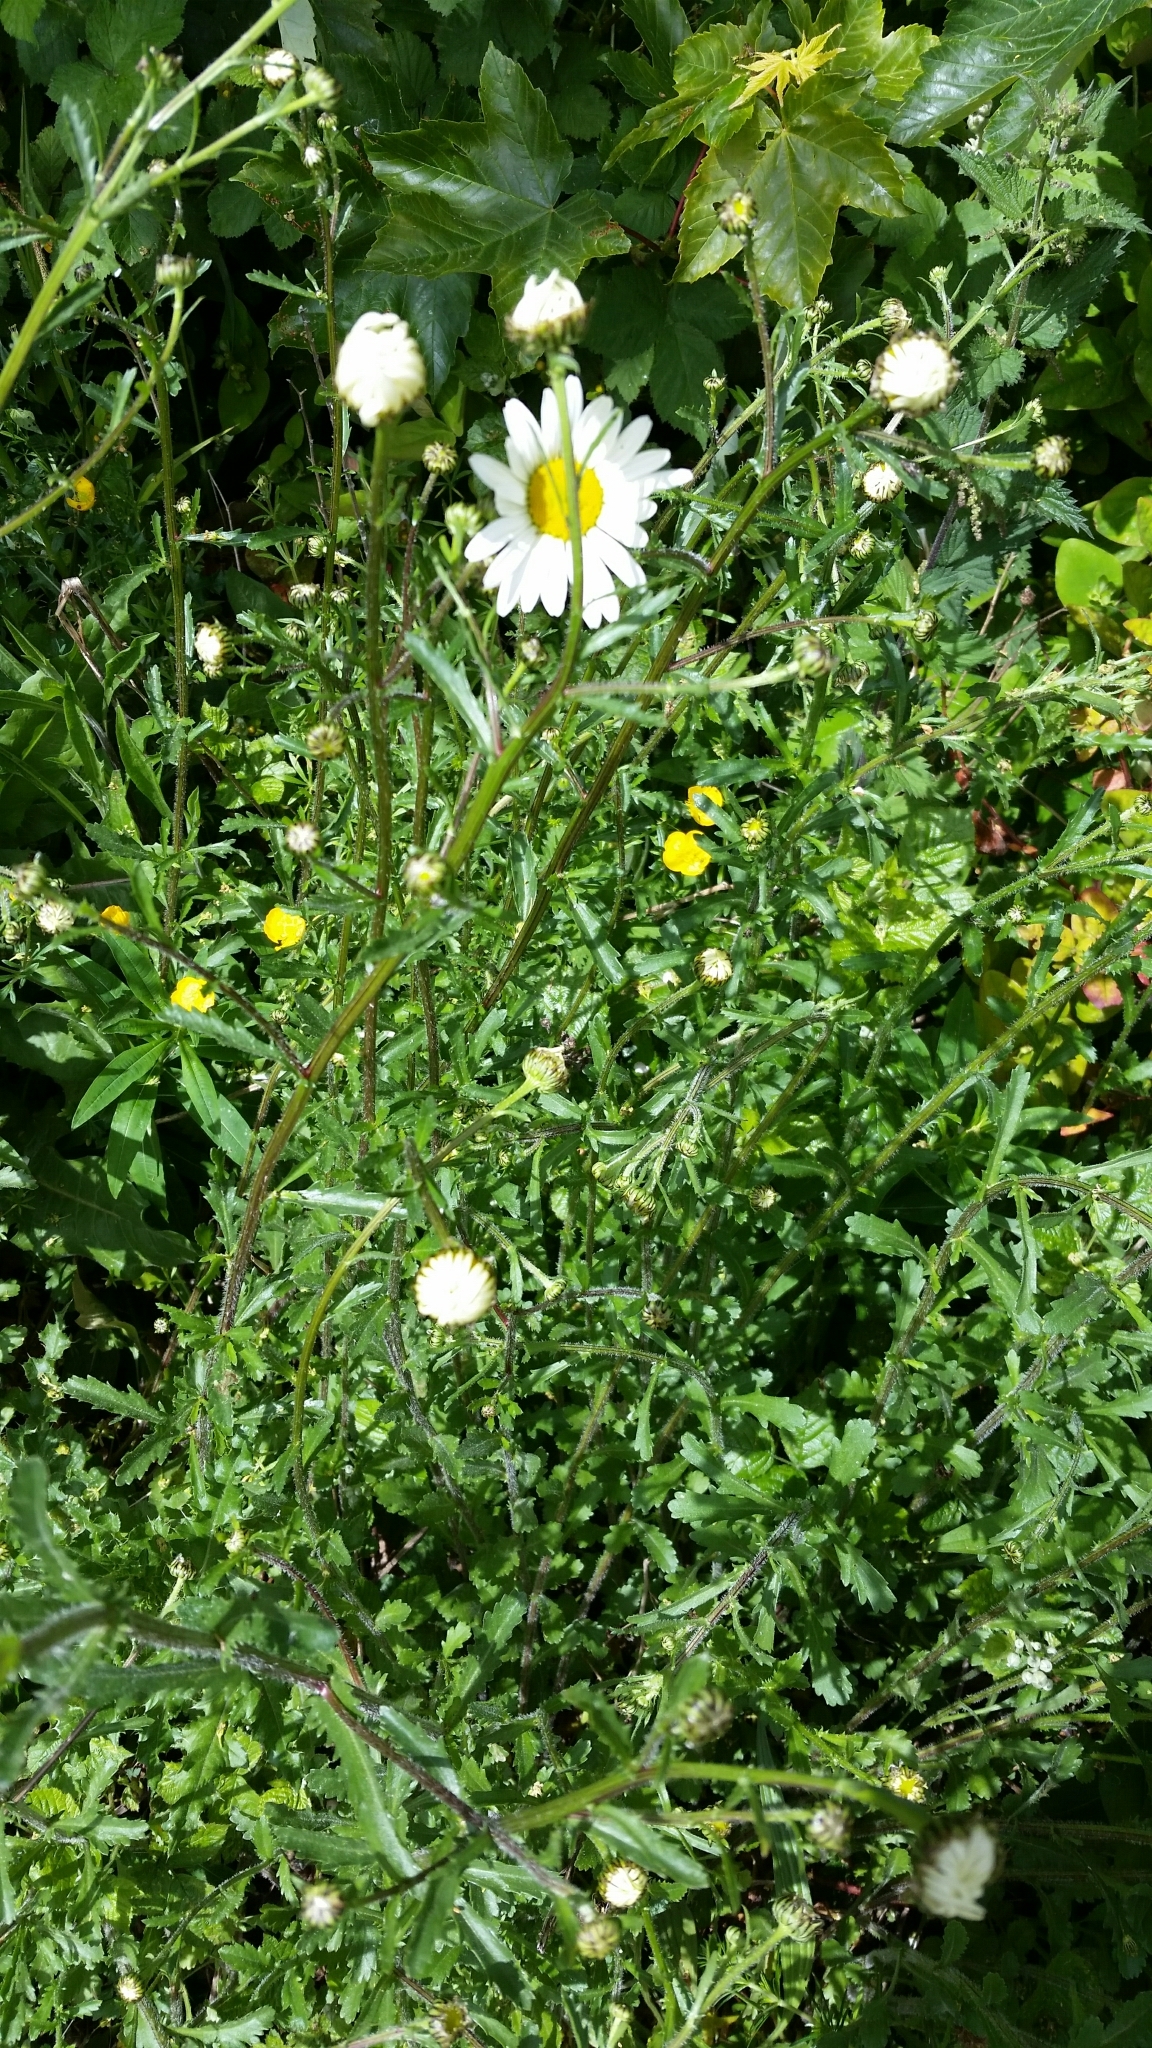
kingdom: Plantae
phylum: Tracheophyta
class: Magnoliopsida
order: Asterales
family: Asteraceae
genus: Leucanthemum
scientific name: Leucanthemum vulgare
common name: Oxeye daisy
